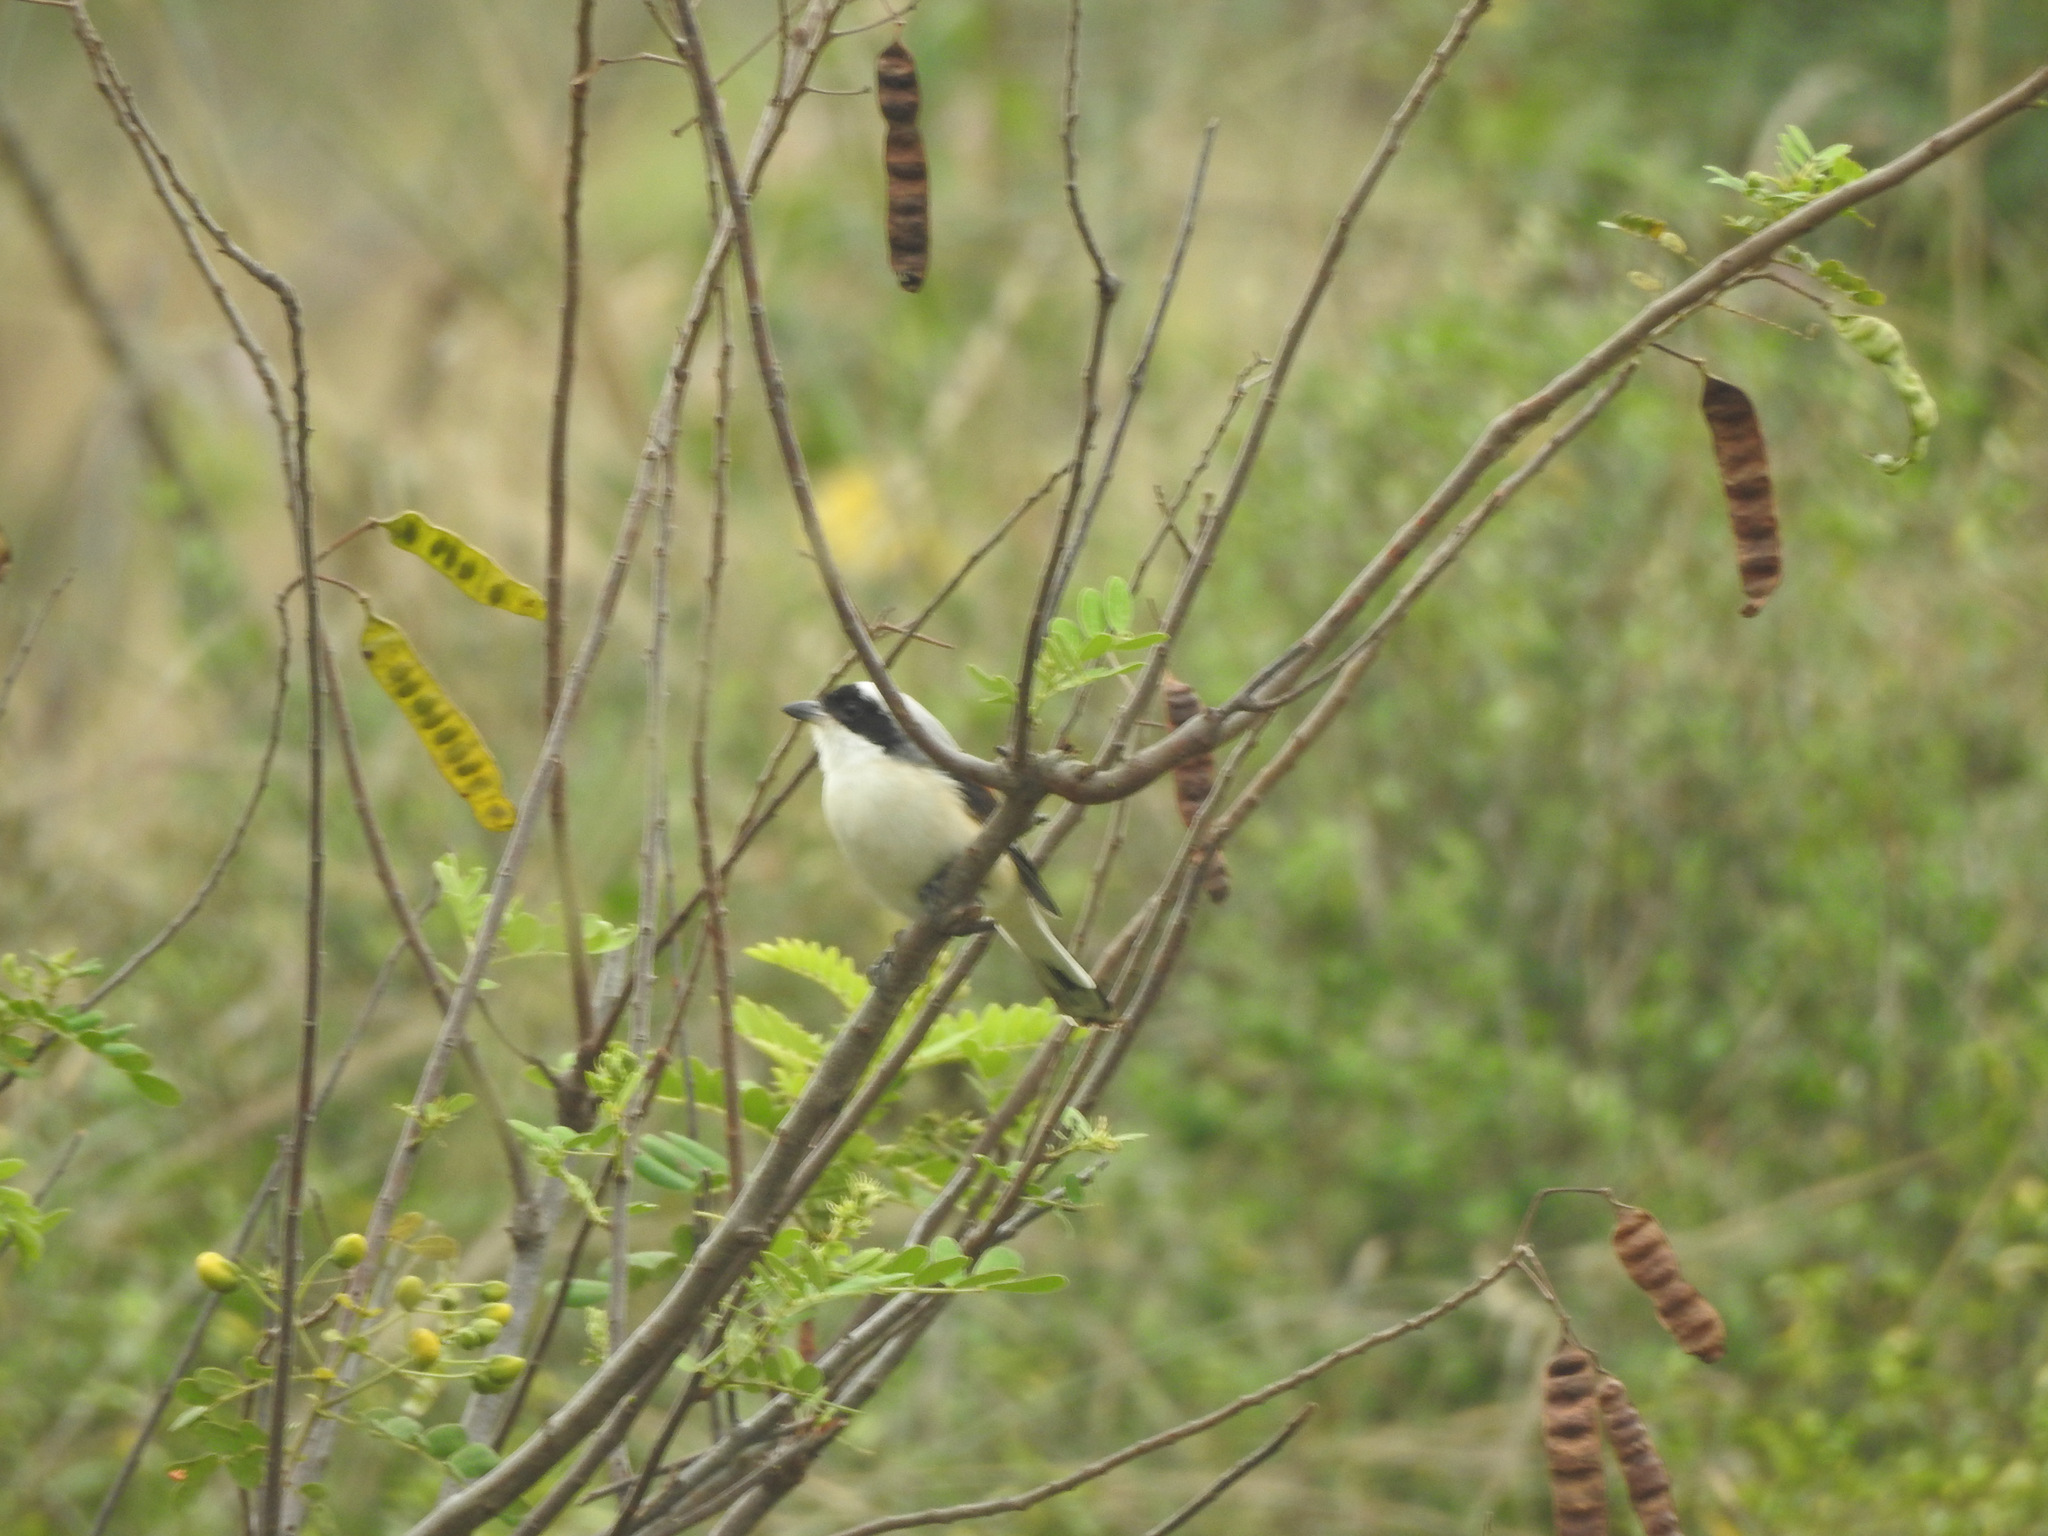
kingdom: Animalia
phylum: Chordata
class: Aves
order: Passeriformes
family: Laniidae
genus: Lanius
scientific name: Lanius vittatus
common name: Bay-backed shrike
